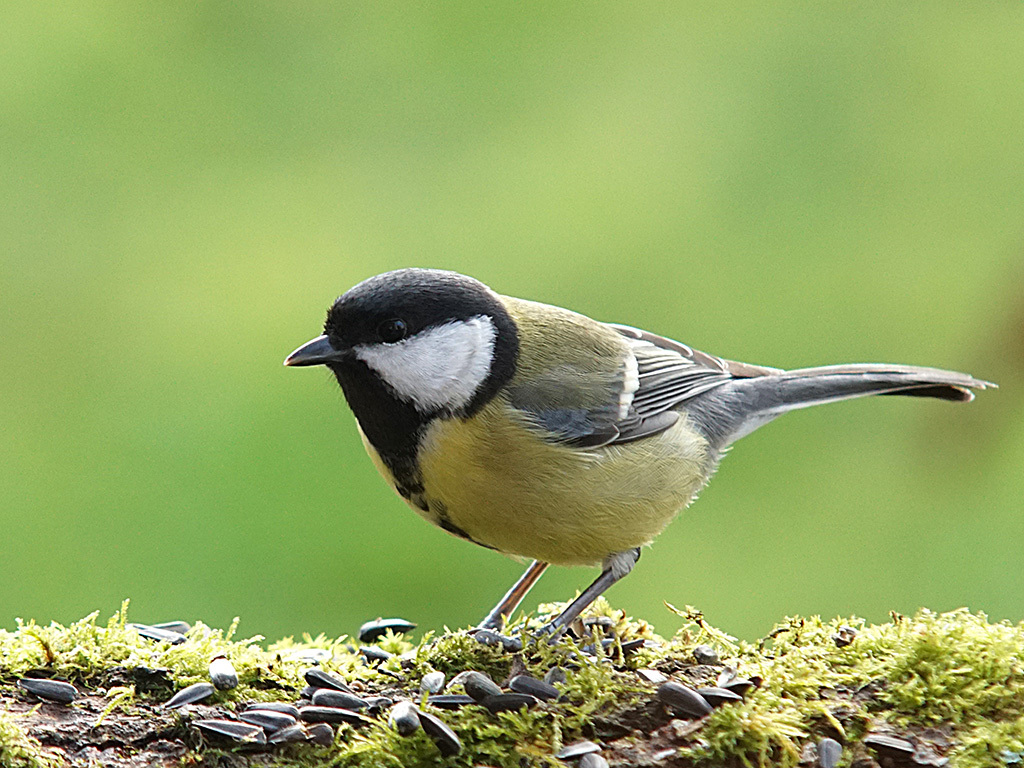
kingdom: Animalia
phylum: Chordata
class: Aves
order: Passeriformes
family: Paridae
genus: Parus
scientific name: Parus major
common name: Great tit
